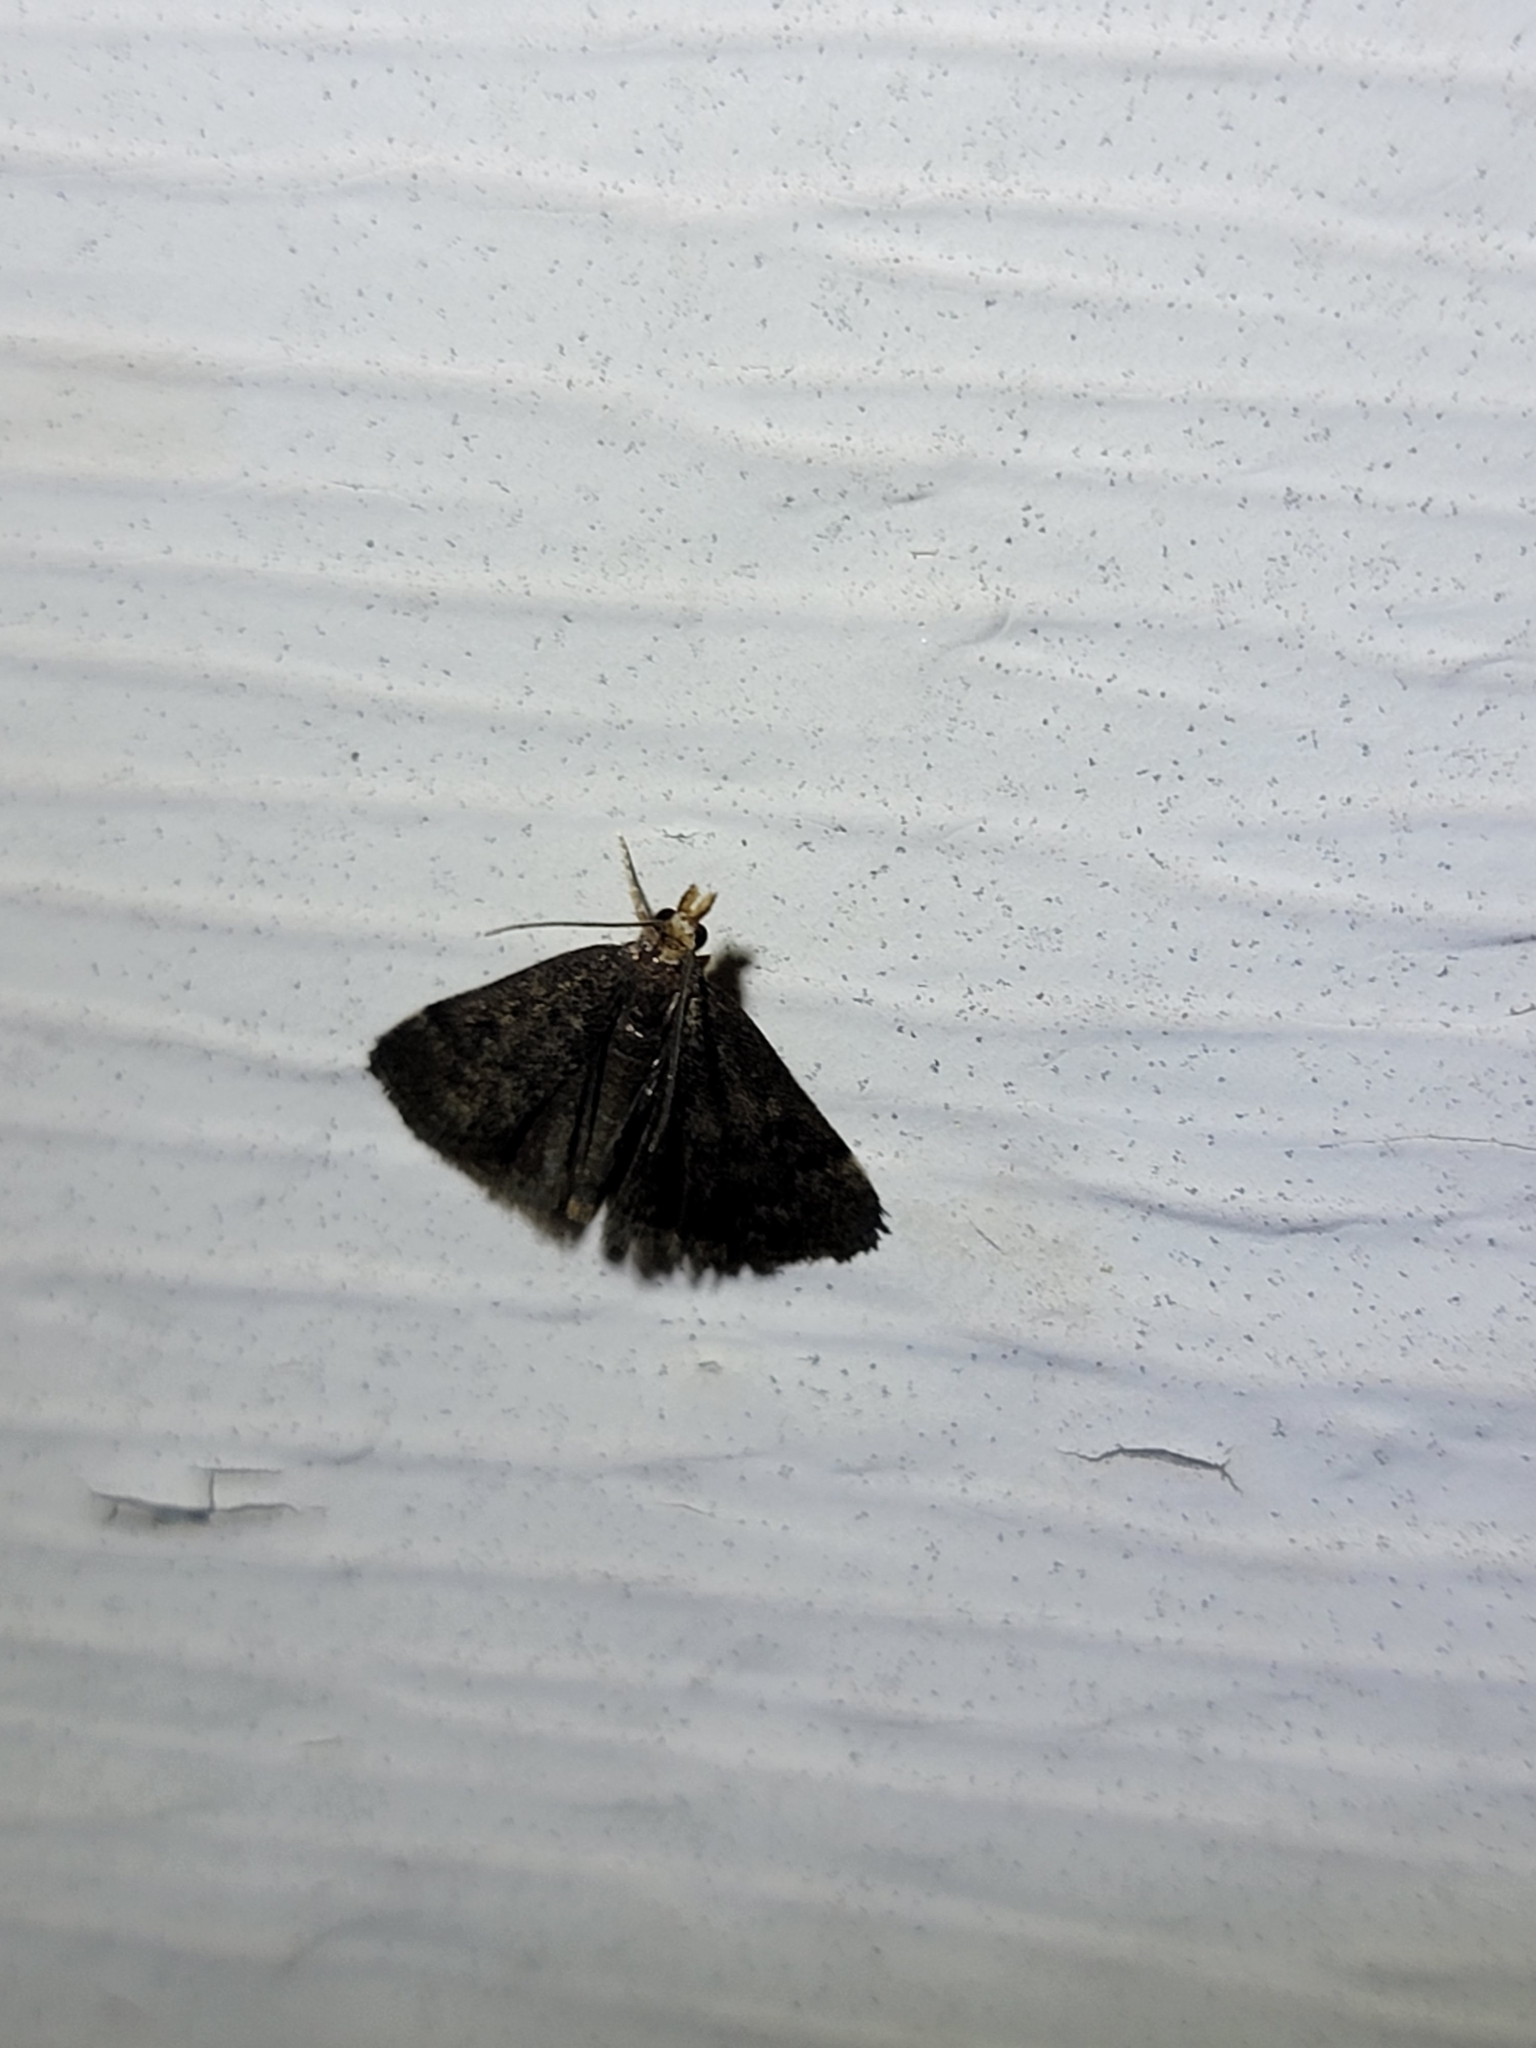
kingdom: Animalia
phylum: Arthropoda
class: Insecta
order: Lepidoptera
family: Crambidae
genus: Pyrausta
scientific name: Pyrausta merrickalis
